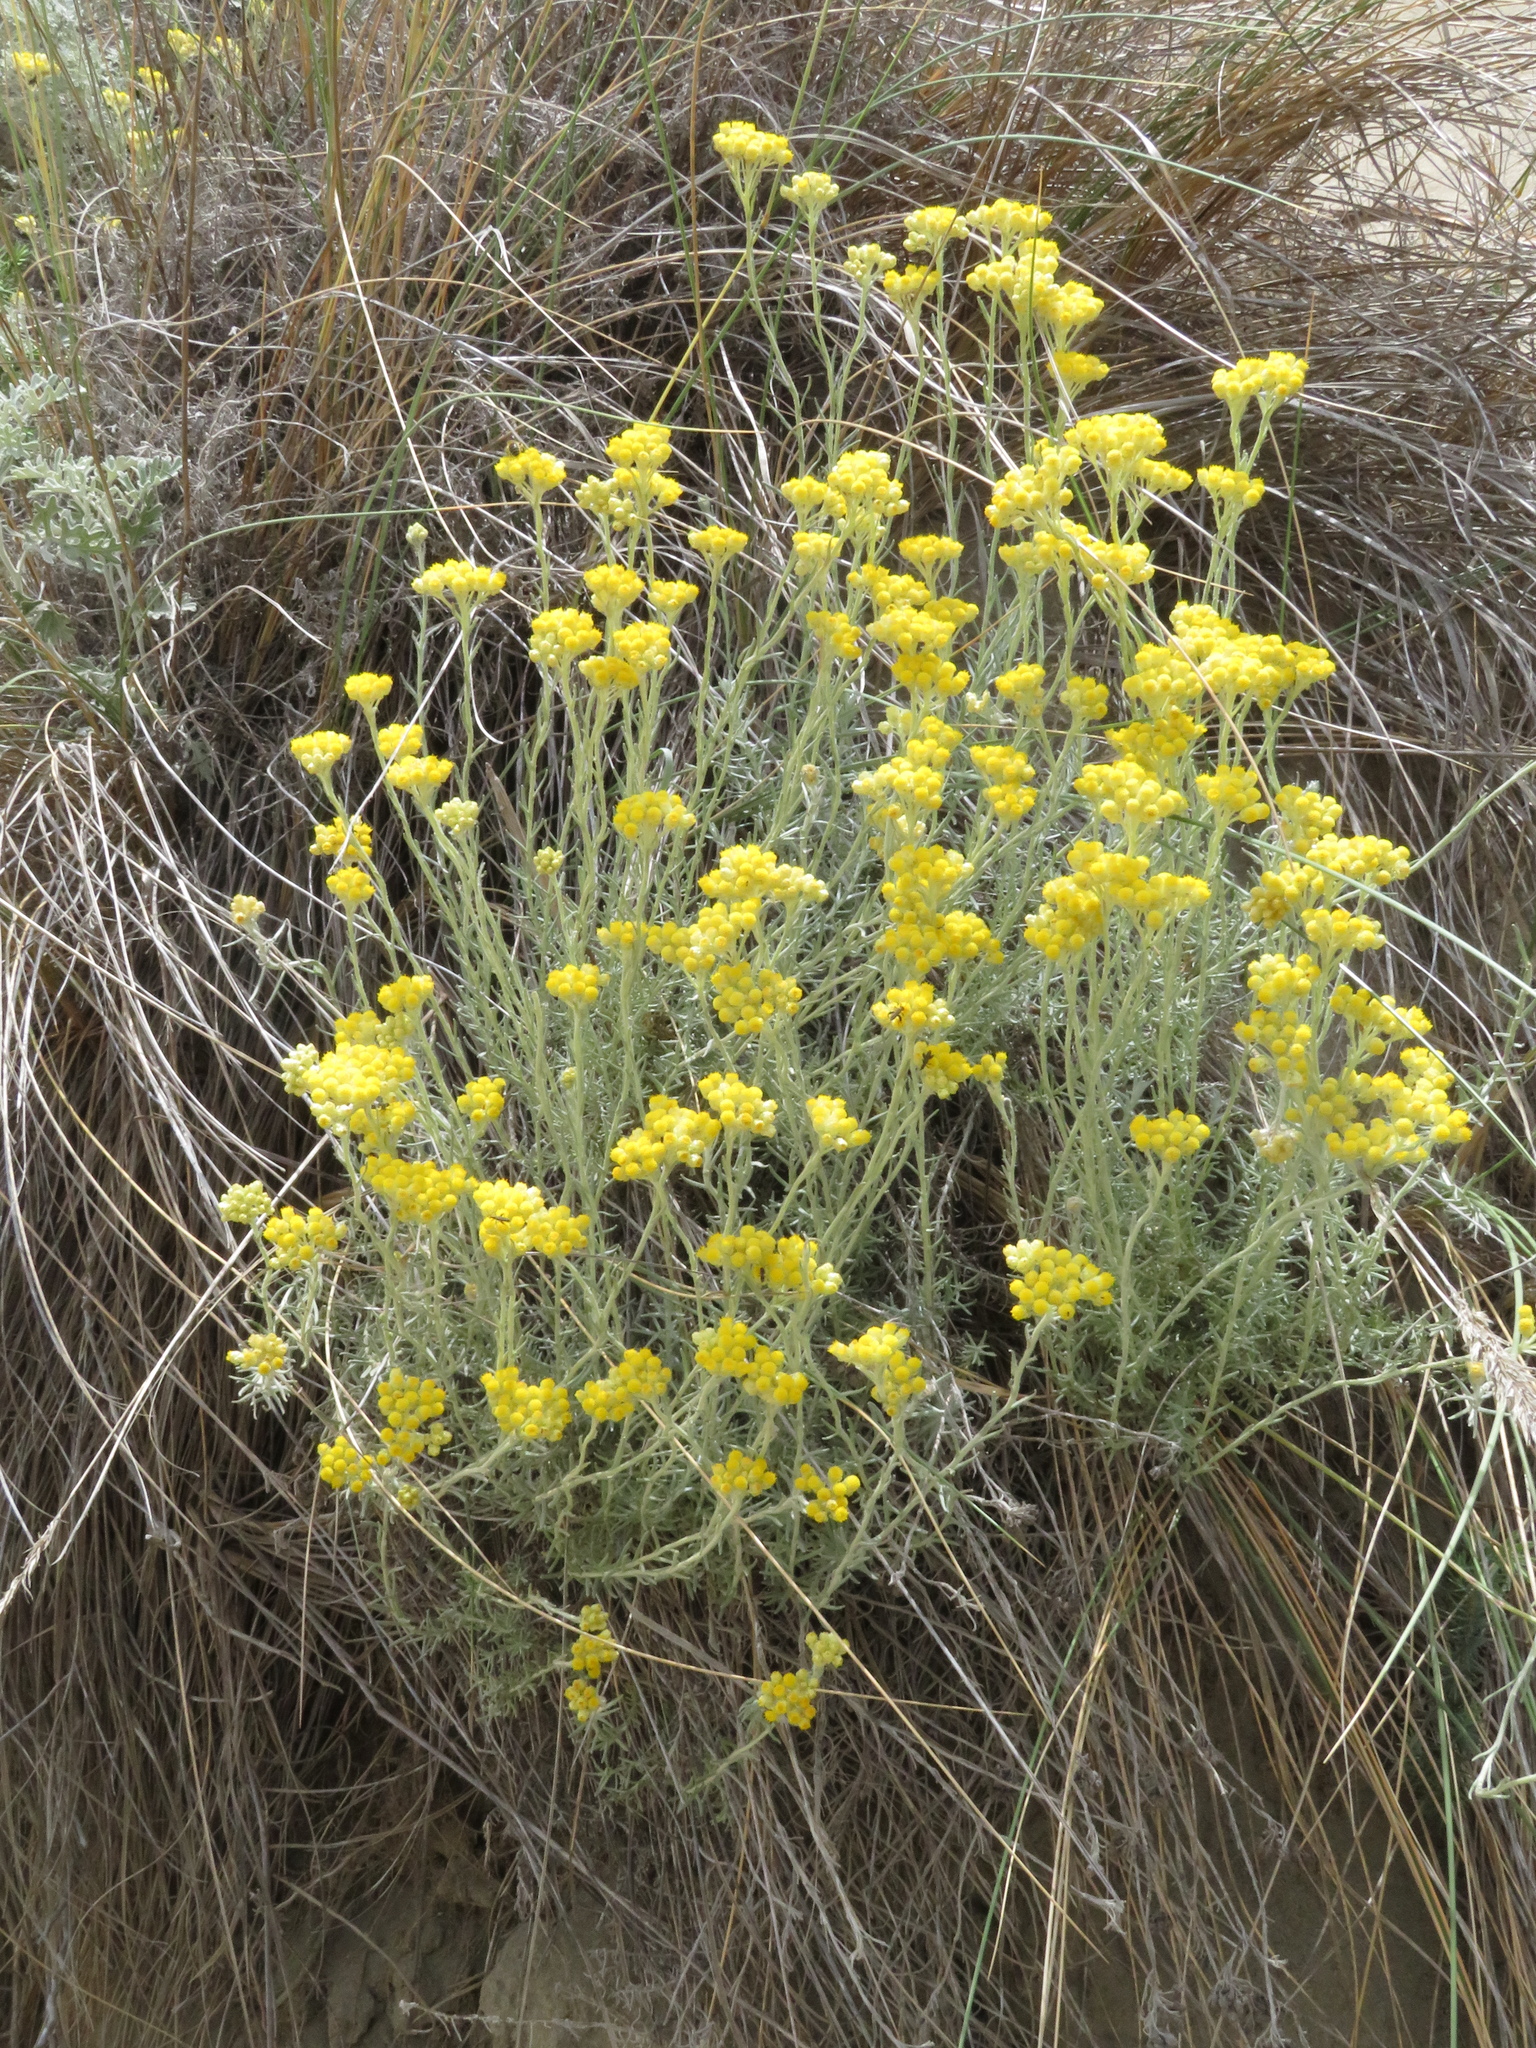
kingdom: Plantae
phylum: Tracheophyta
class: Magnoliopsida
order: Asterales
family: Asteraceae
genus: Helichrysum
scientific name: Helichrysum stoechas
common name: Goldilocks
